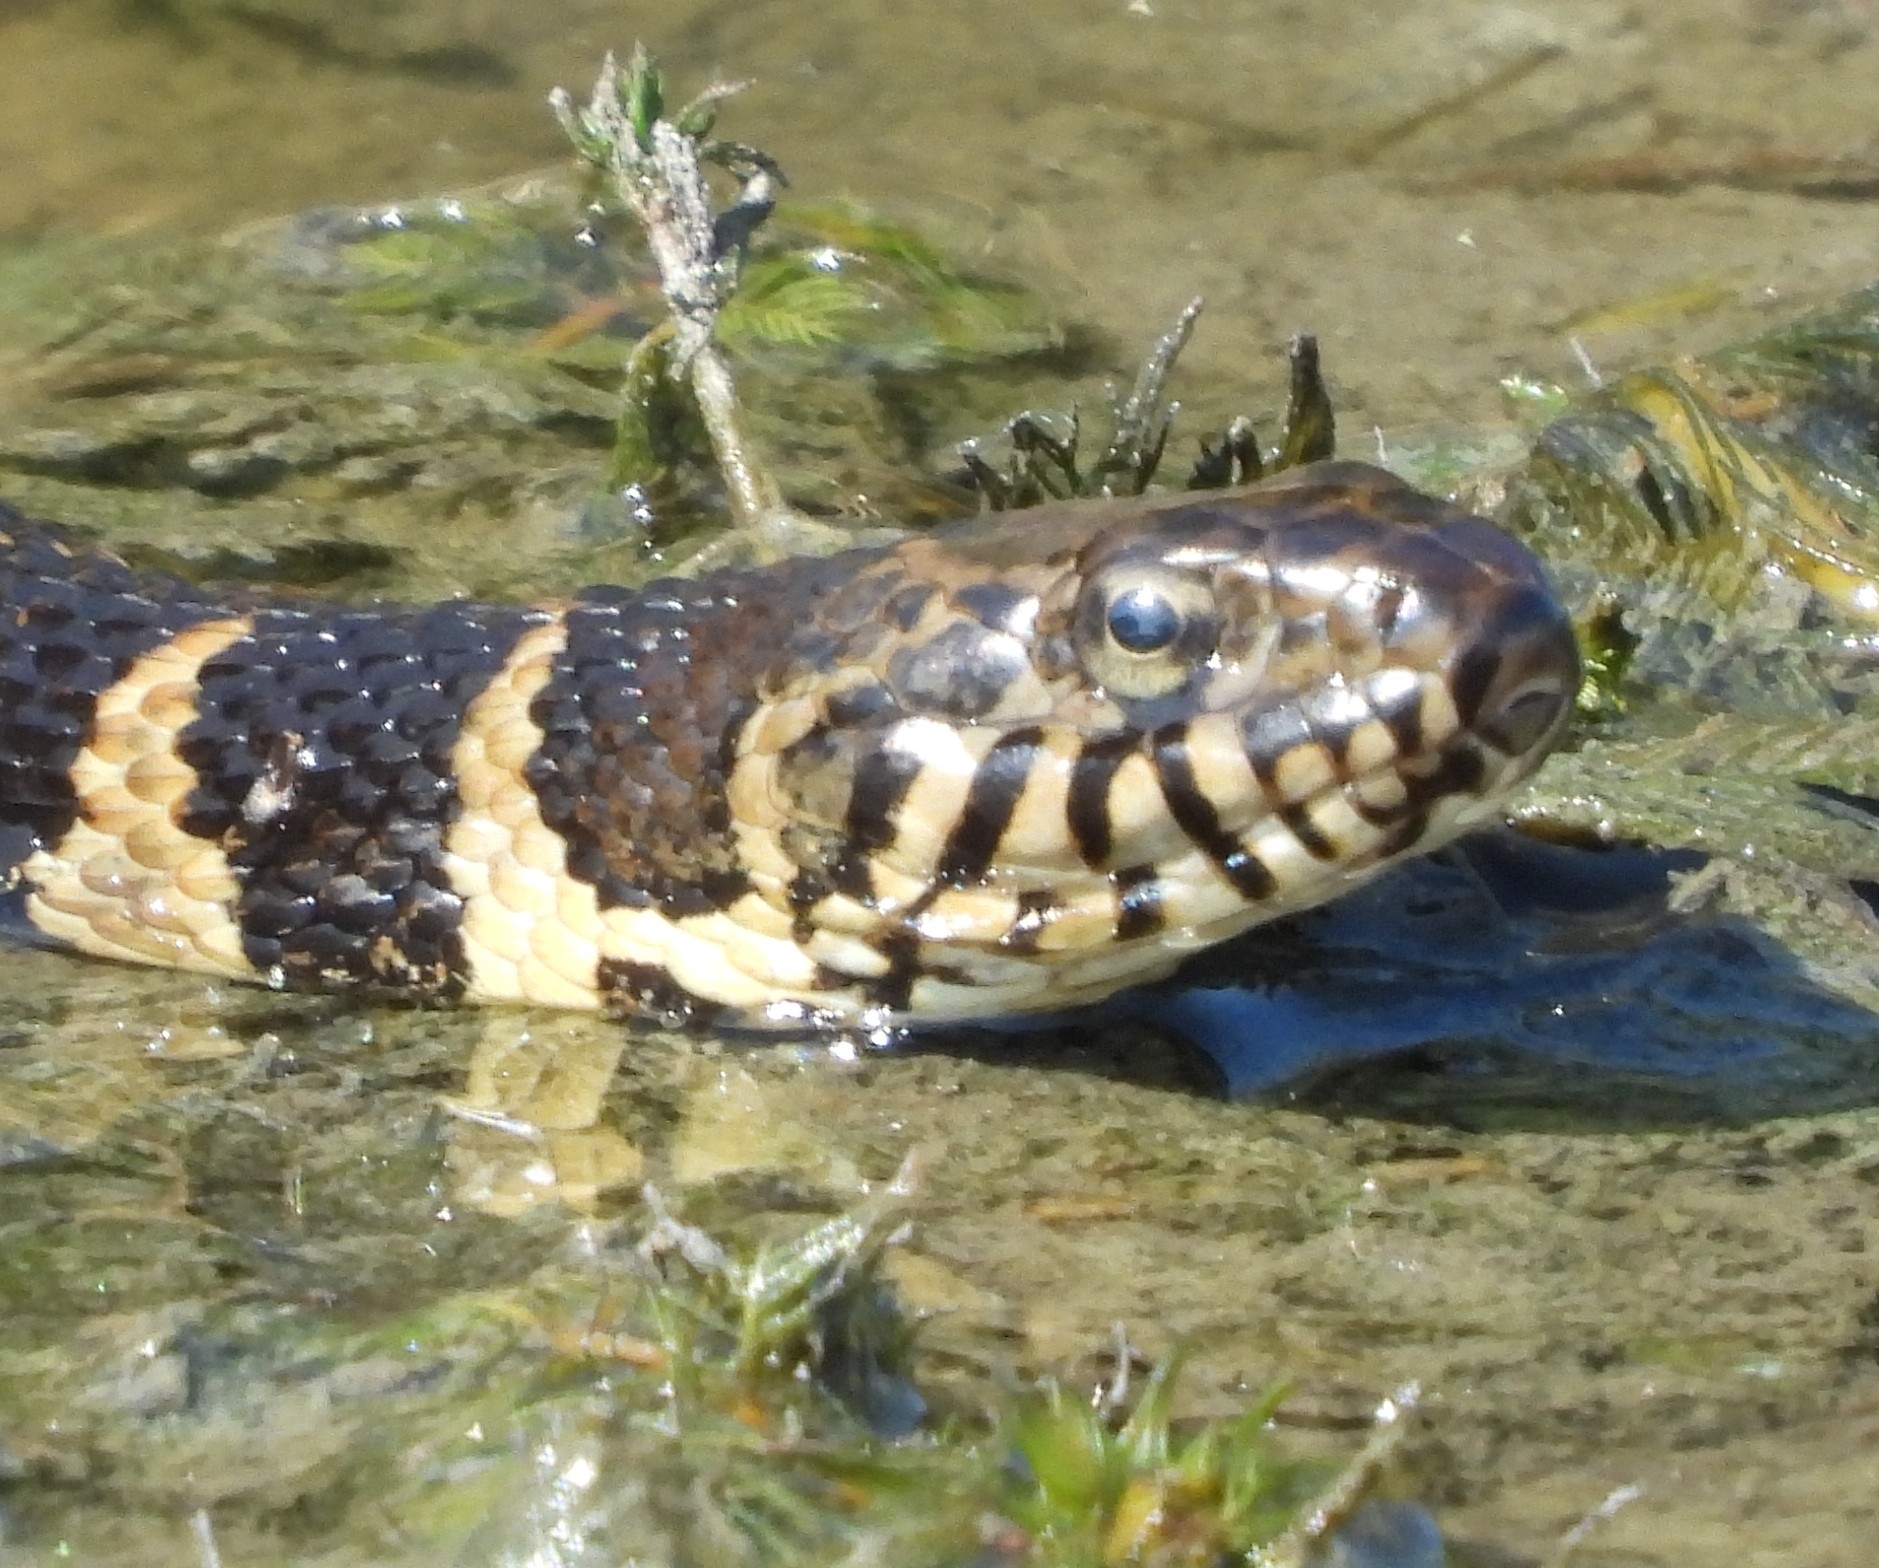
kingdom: Animalia
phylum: Chordata
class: Squamata
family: Colubridae
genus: Nerodia
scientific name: Nerodia sipedon
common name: Northern water snake
